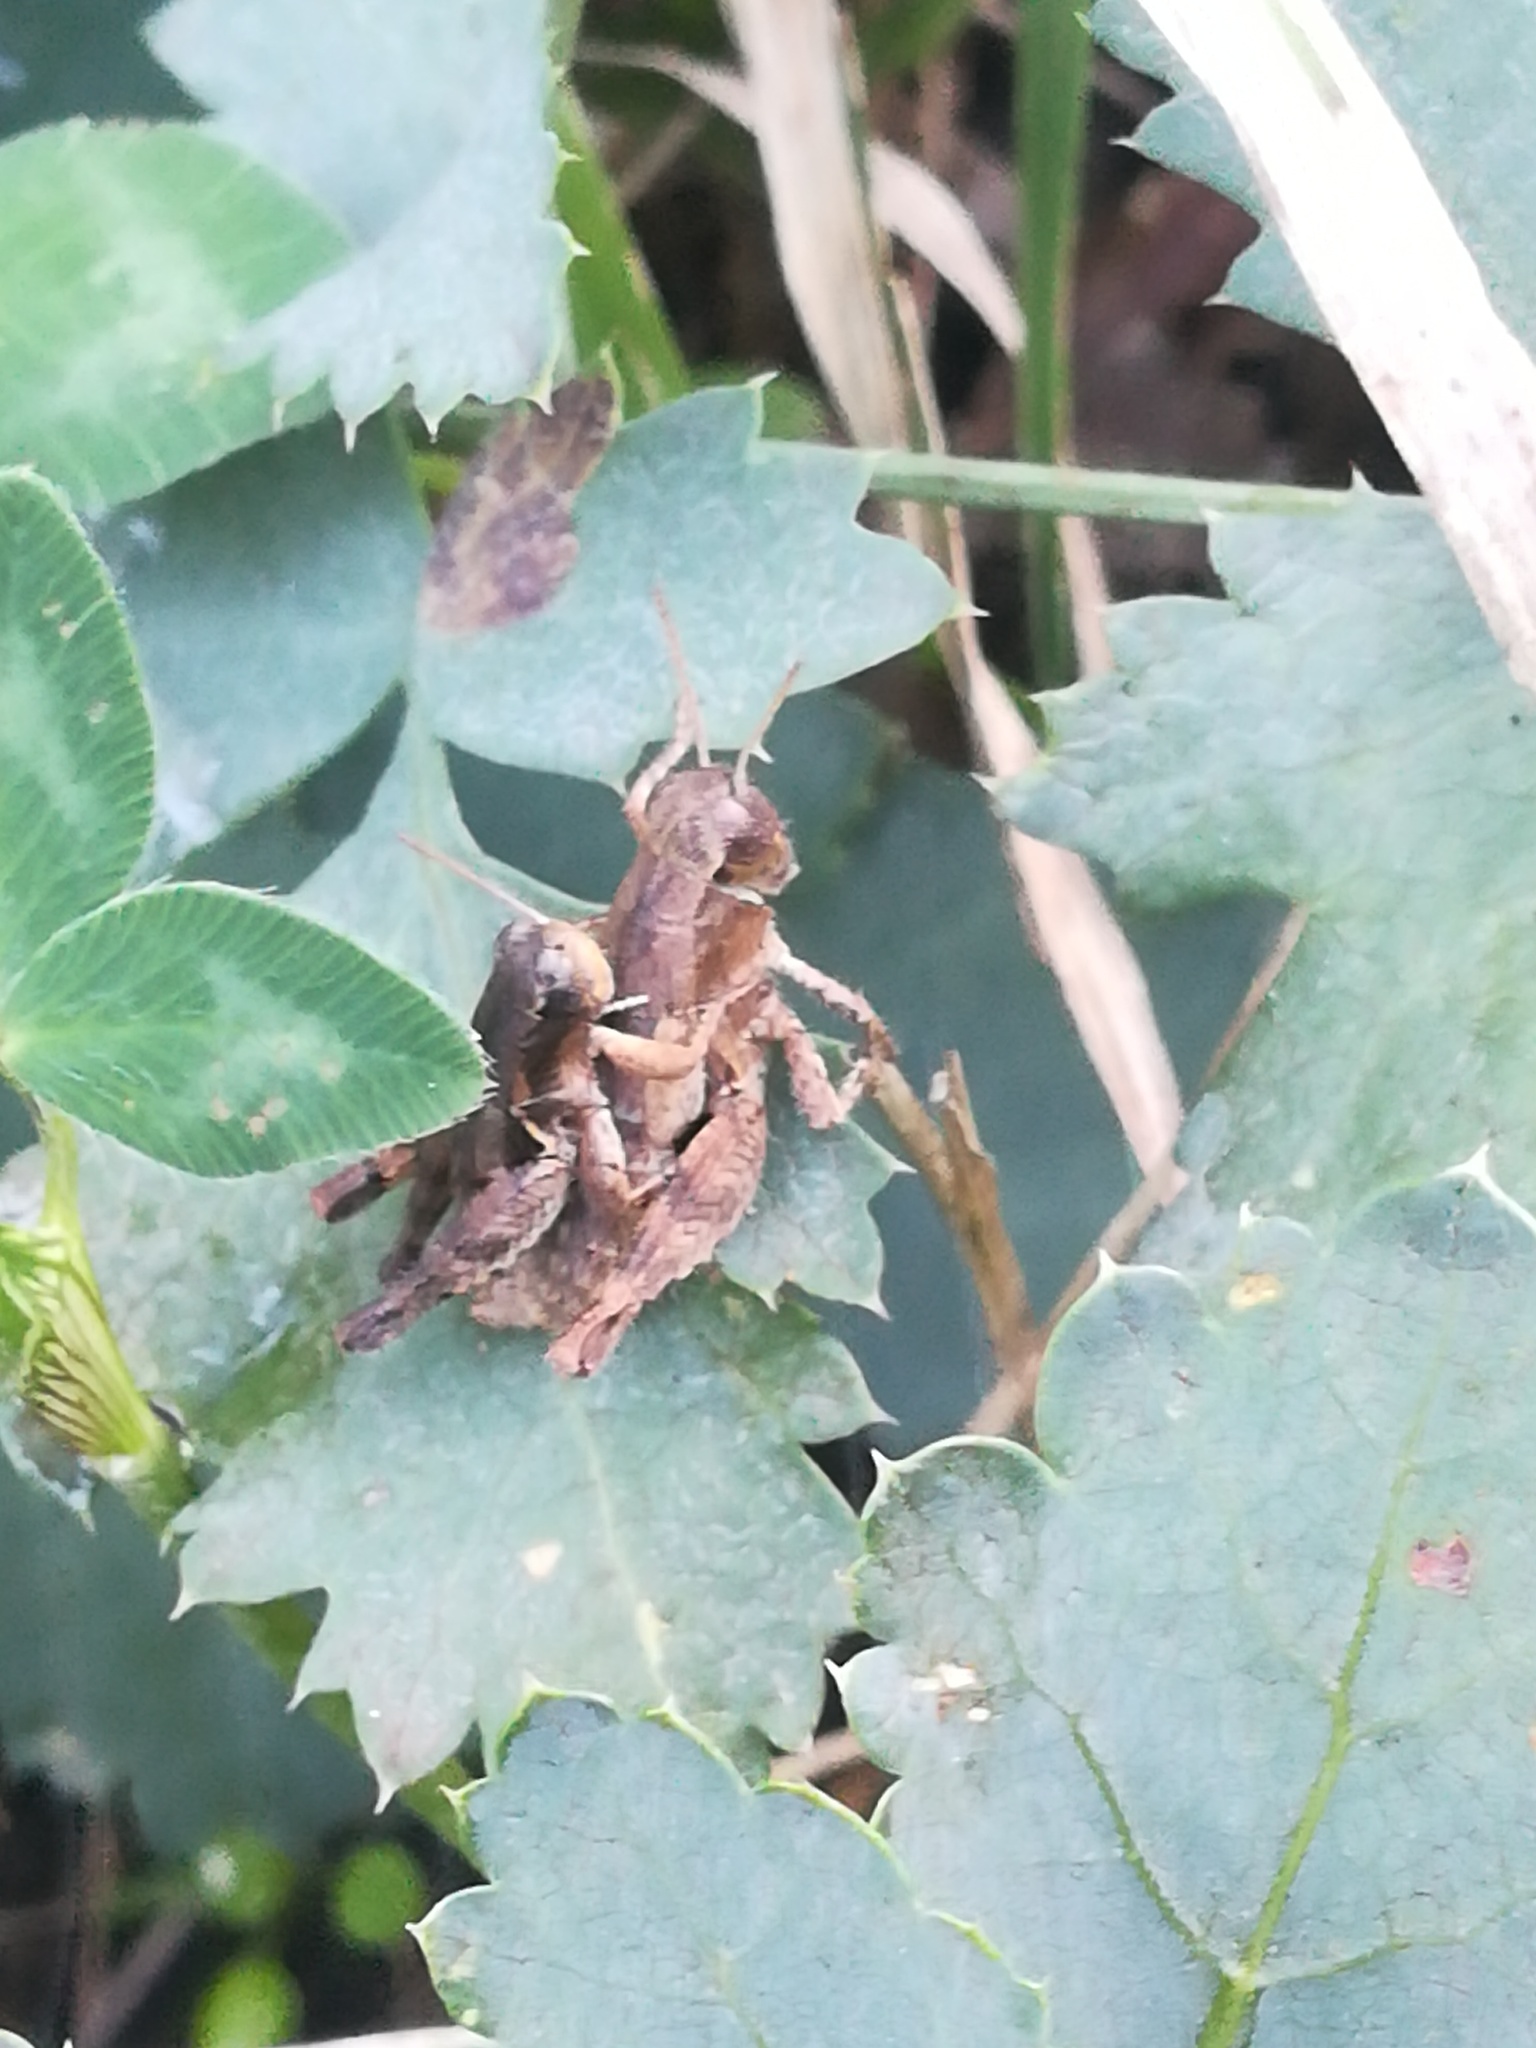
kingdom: Animalia
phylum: Arthropoda
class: Insecta
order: Orthoptera
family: Acrididae
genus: Pezotettix
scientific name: Pezotettix giornae
